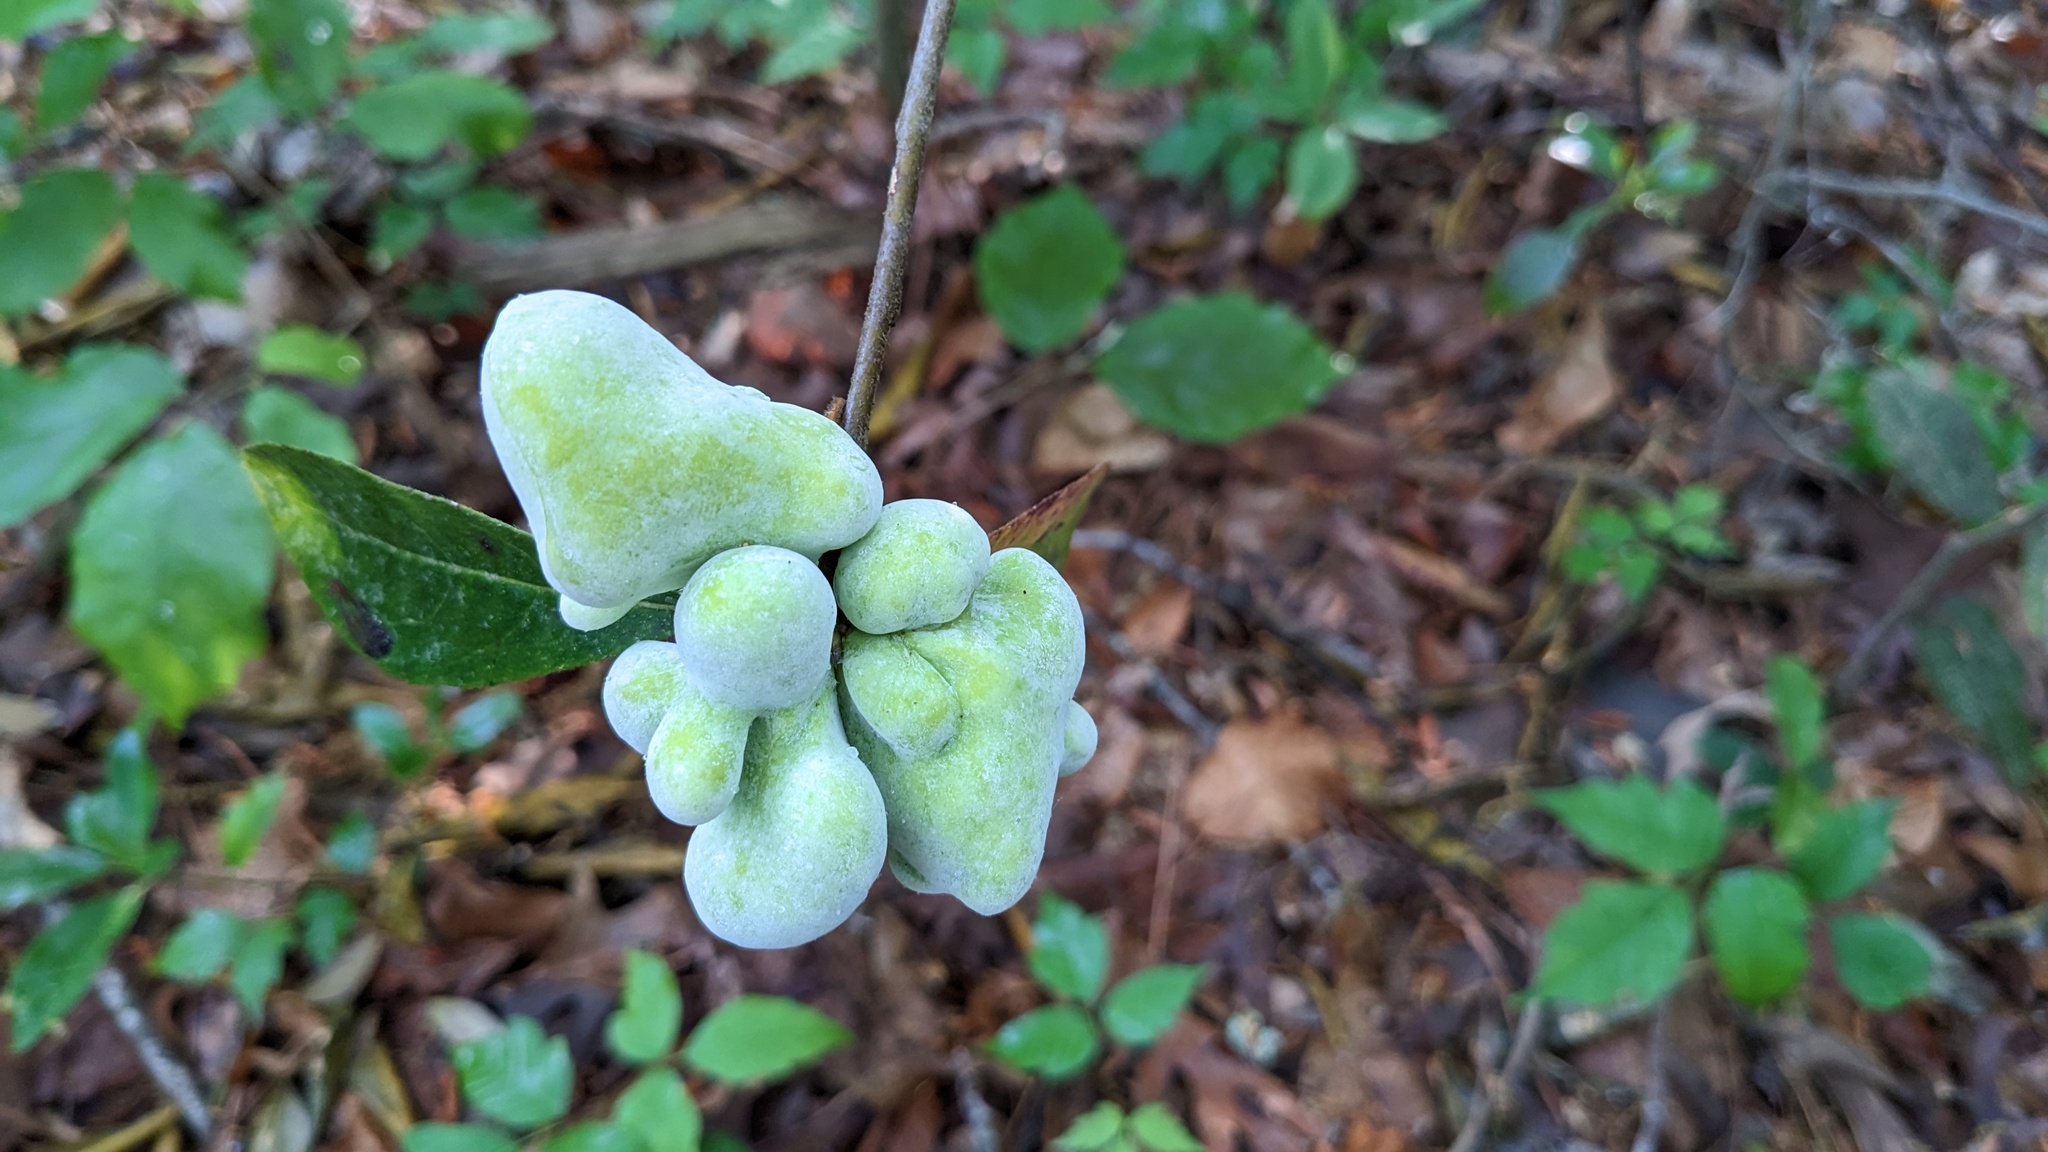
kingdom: Fungi
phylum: Basidiomycota
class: Exobasidiomycetes
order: Exobasidiales
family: Exobasidiaceae
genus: Exobasidium
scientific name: Exobasidium symploci
